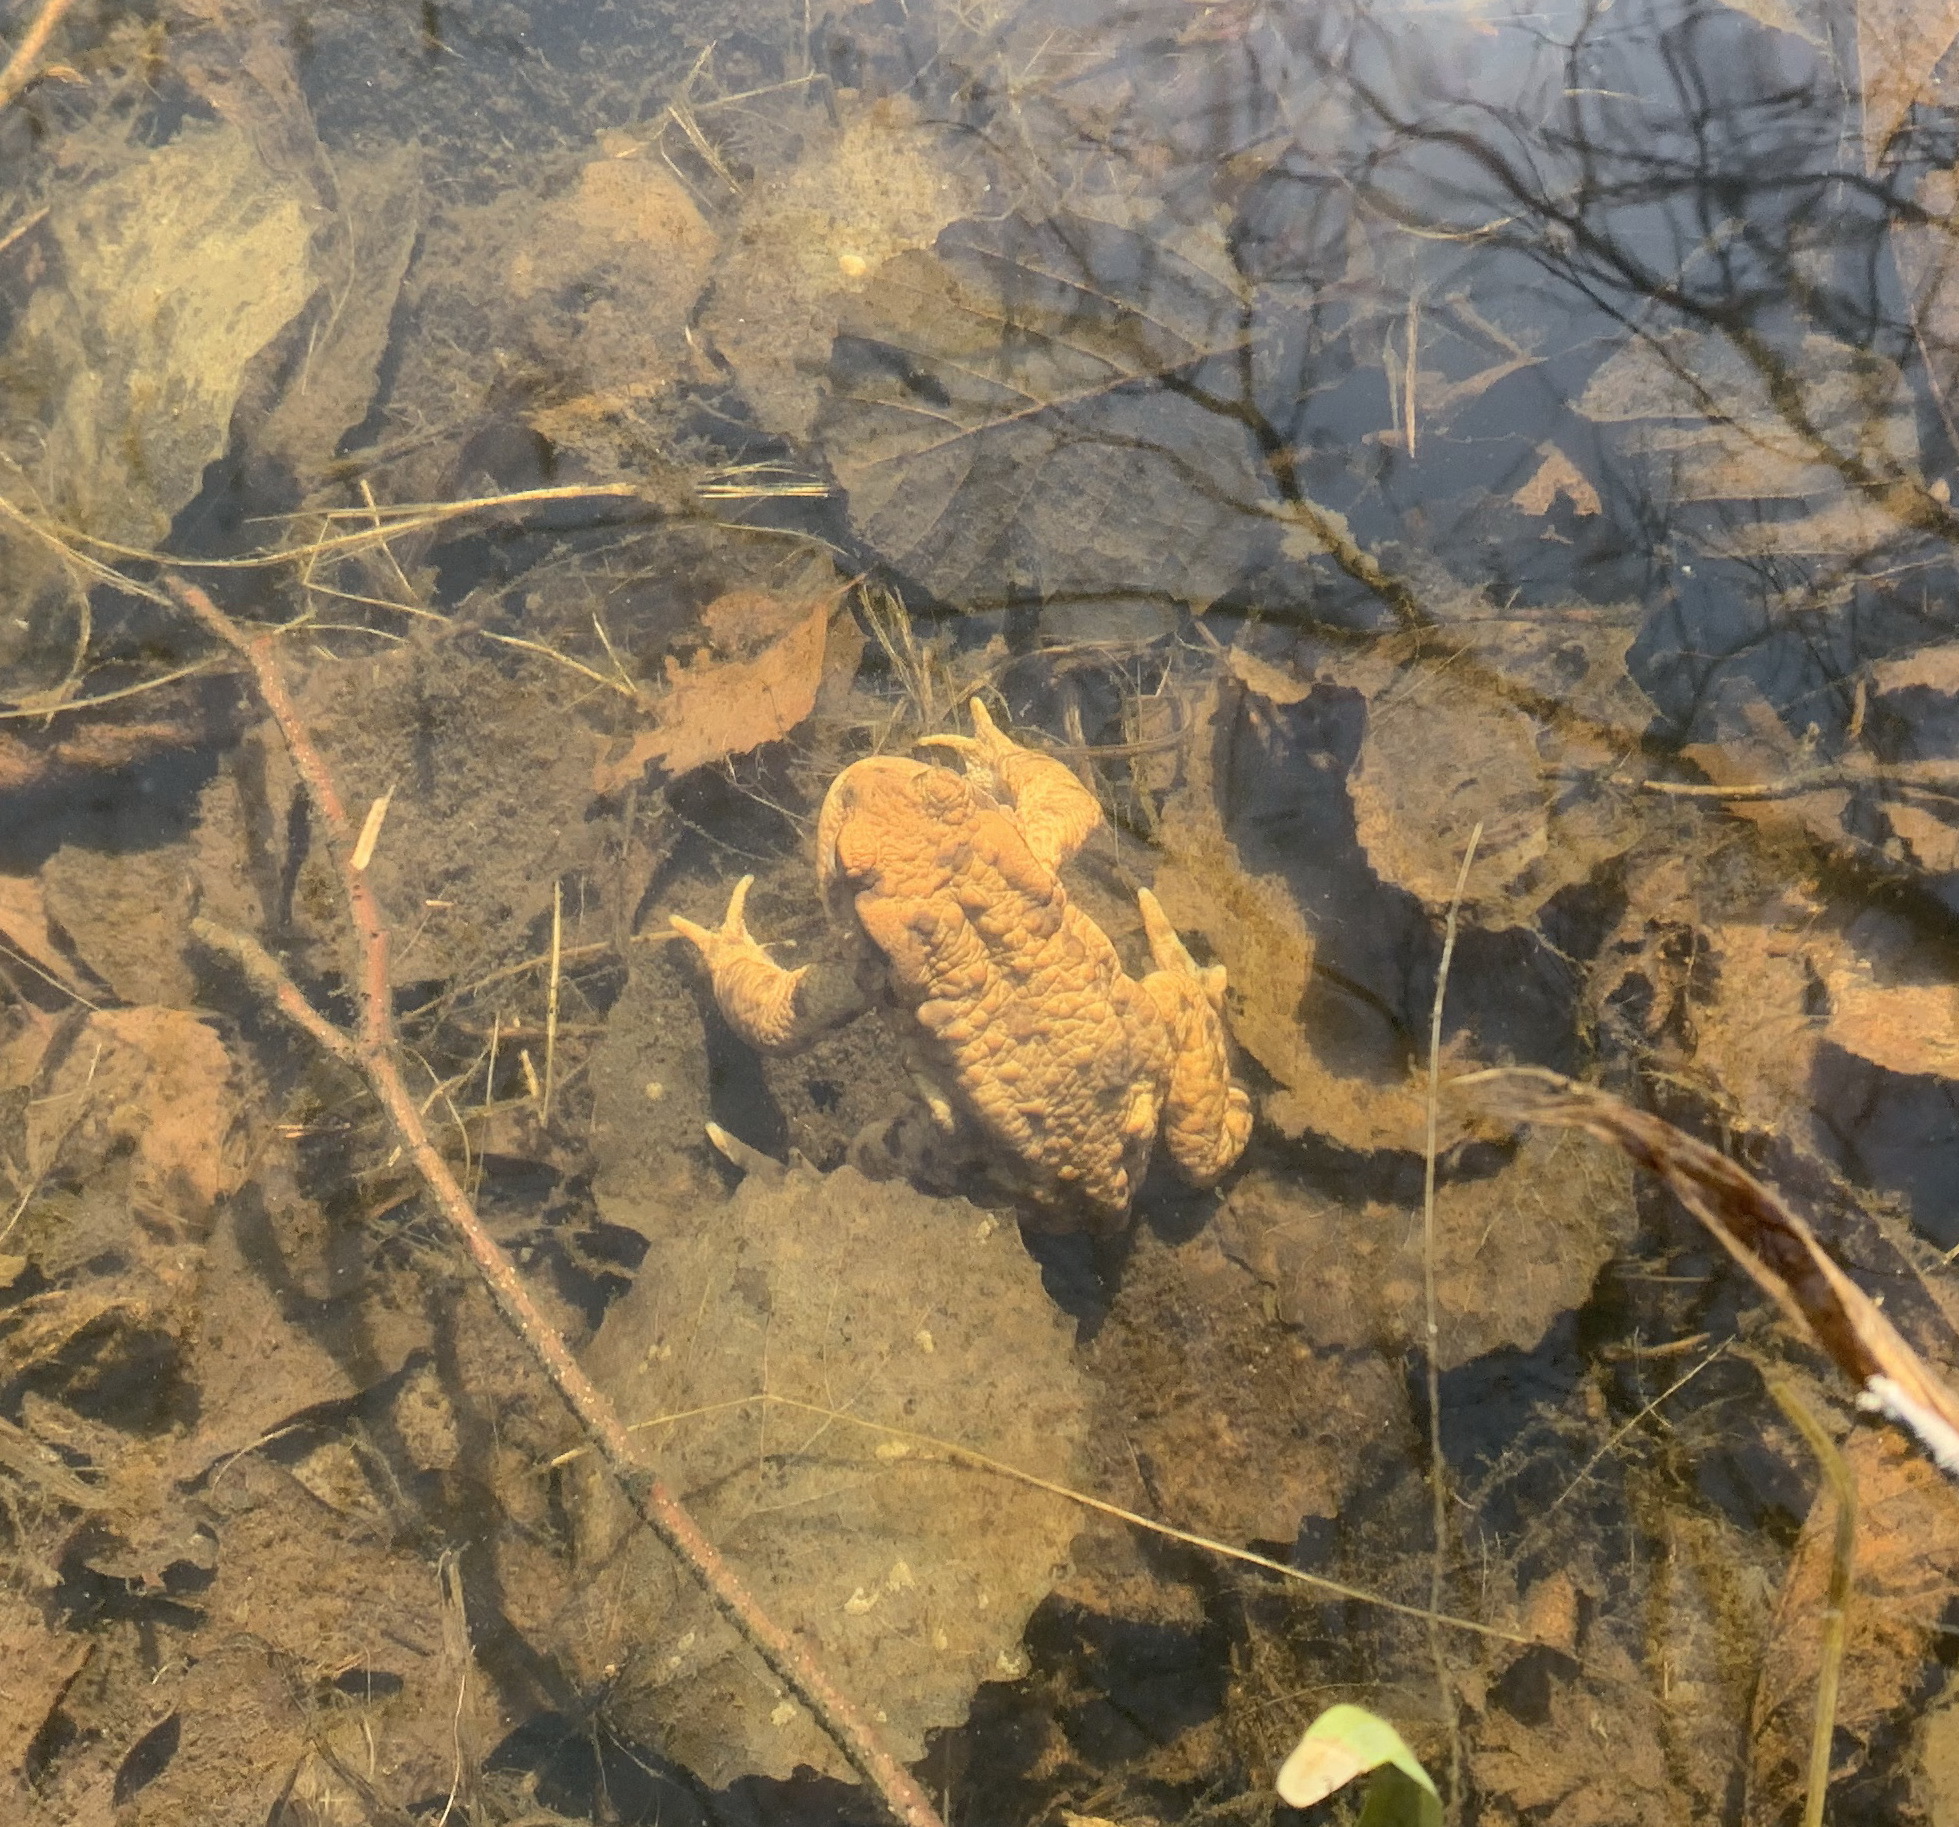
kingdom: Animalia
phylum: Chordata
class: Amphibia
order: Anura
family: Bufonidae
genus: Bufo
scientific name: Bufo bufo
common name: Common toad
